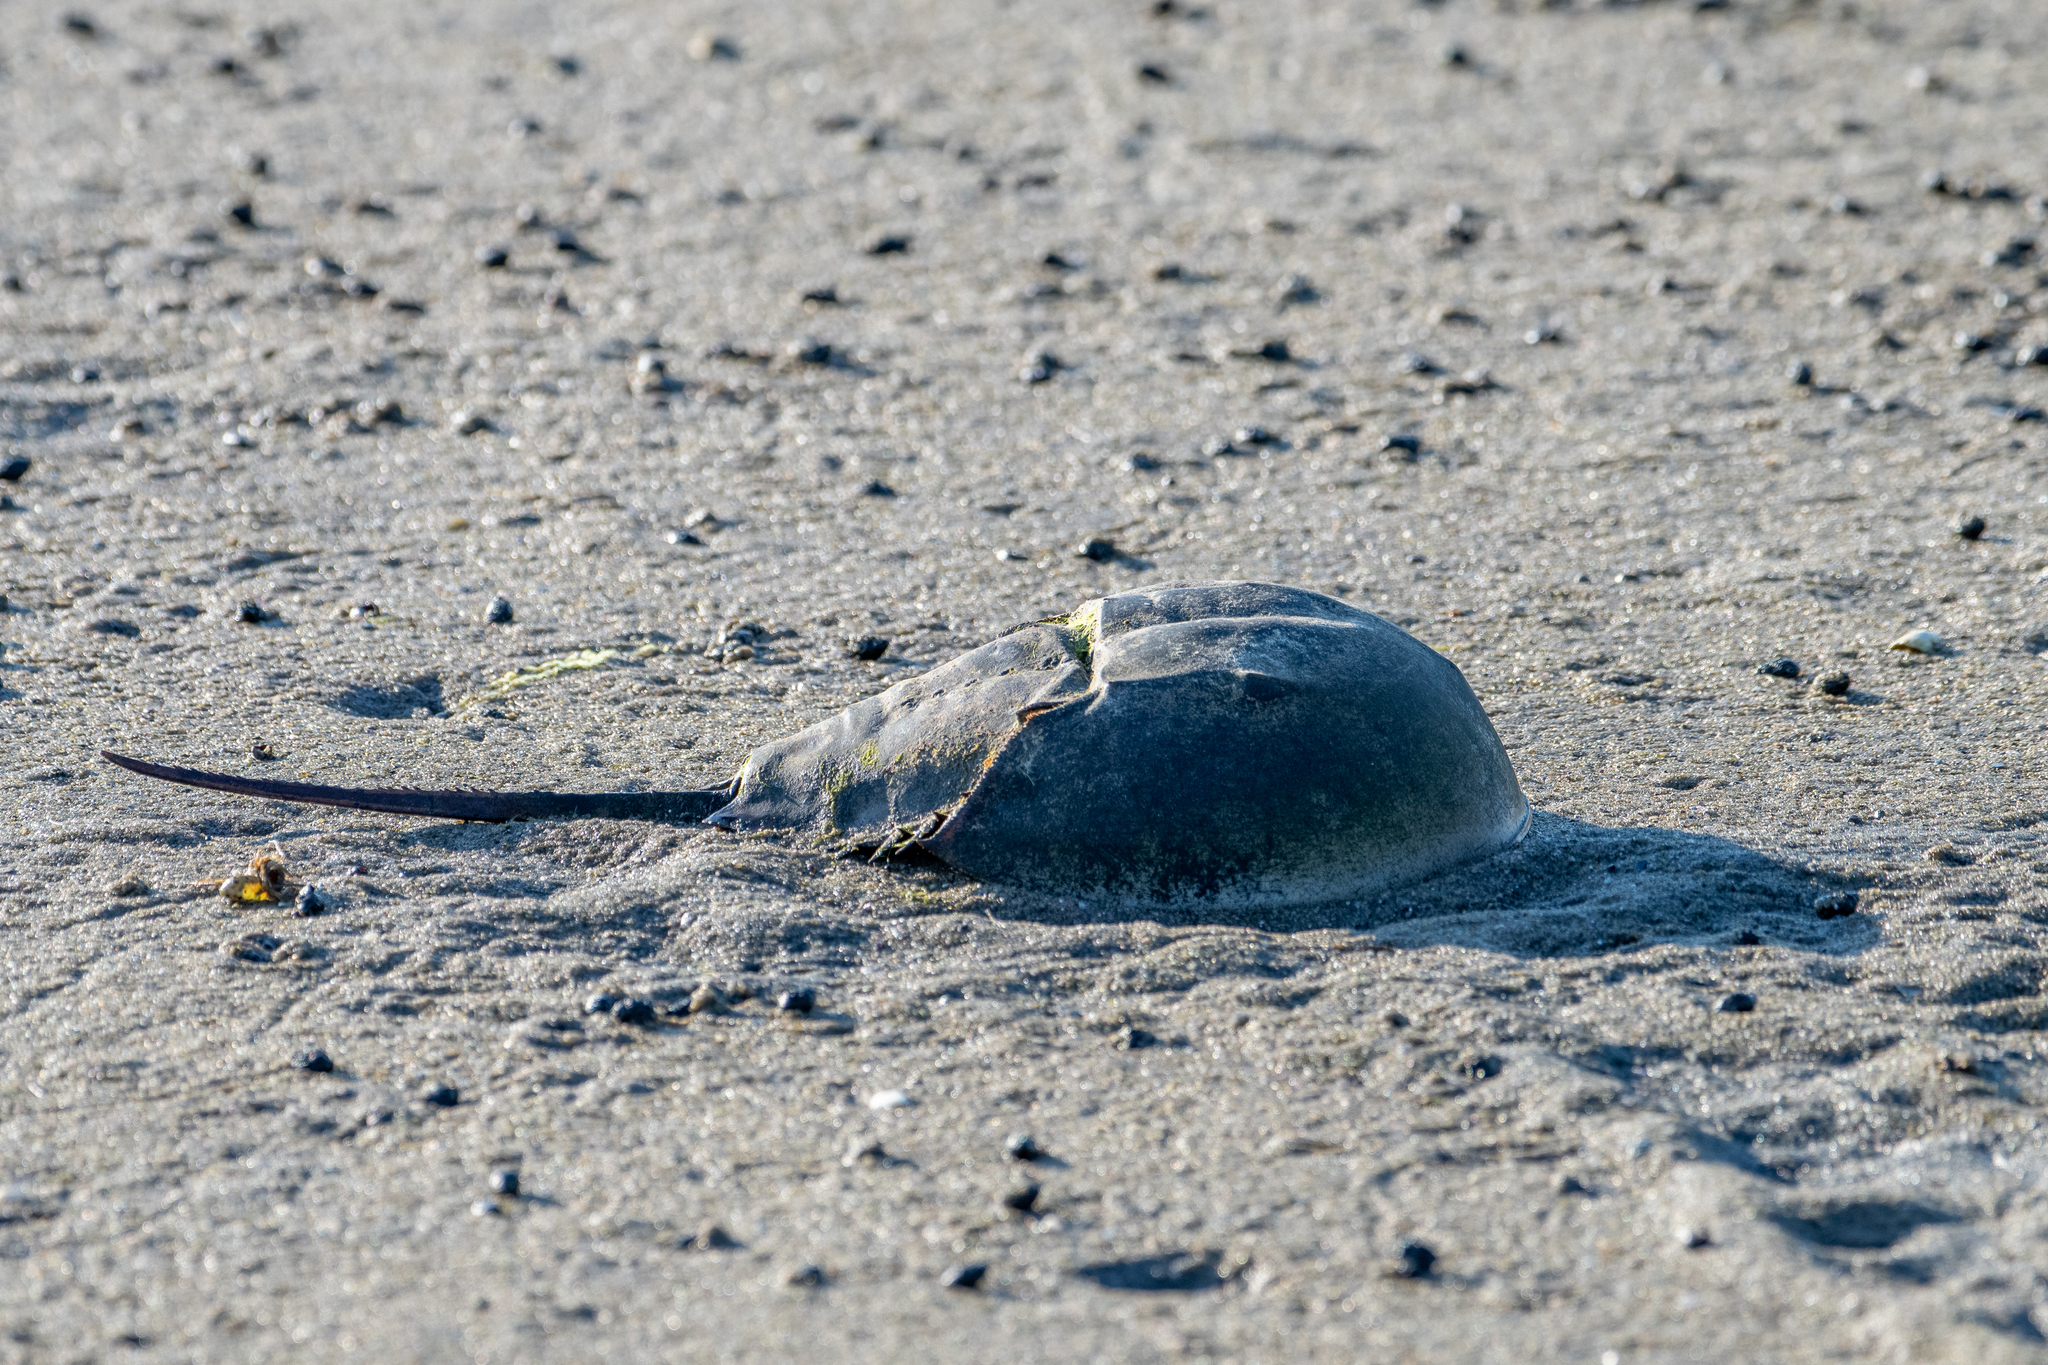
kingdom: Animalia
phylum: Arthropoda
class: Merostomata
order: Xiphosurida
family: Limulidae
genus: Limulus
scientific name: Limulus polyphemus
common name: Horseshoe crab
